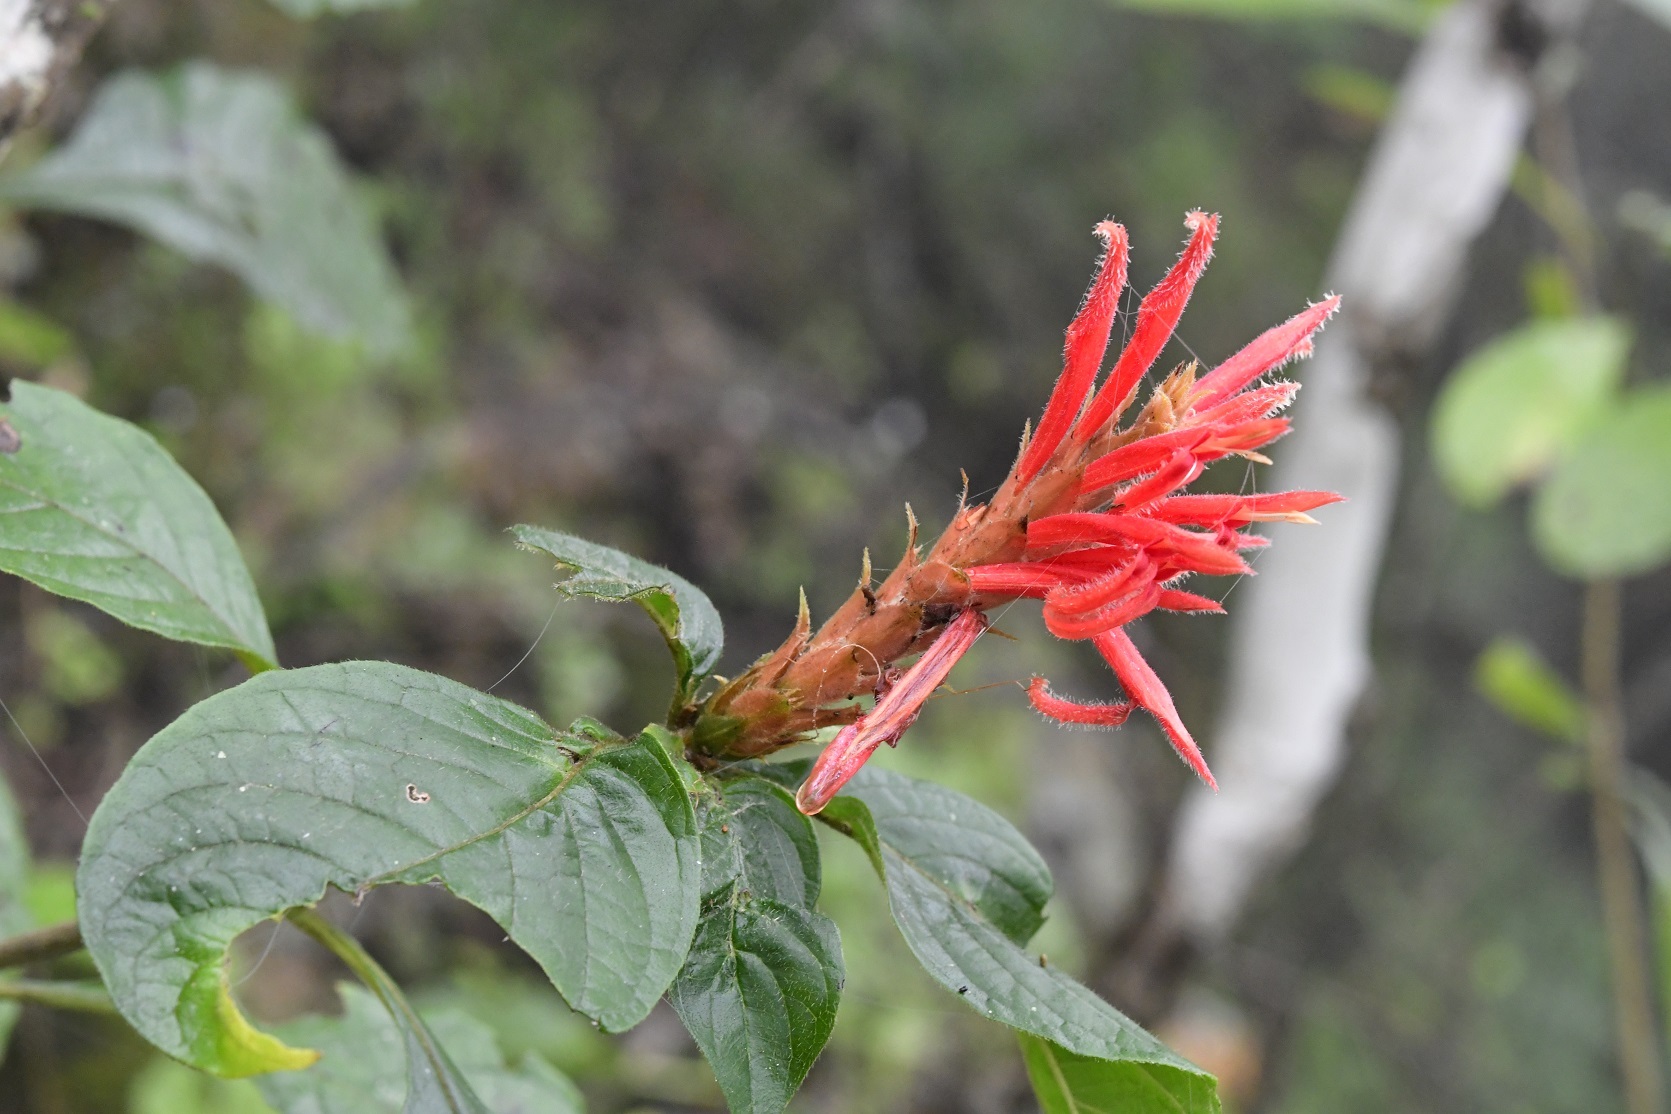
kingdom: Plantae
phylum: Tracheophyta
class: Magnoliopsida
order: Lamiales
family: Acanthaceae
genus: Aphelandra
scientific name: Aphelandra scabra
